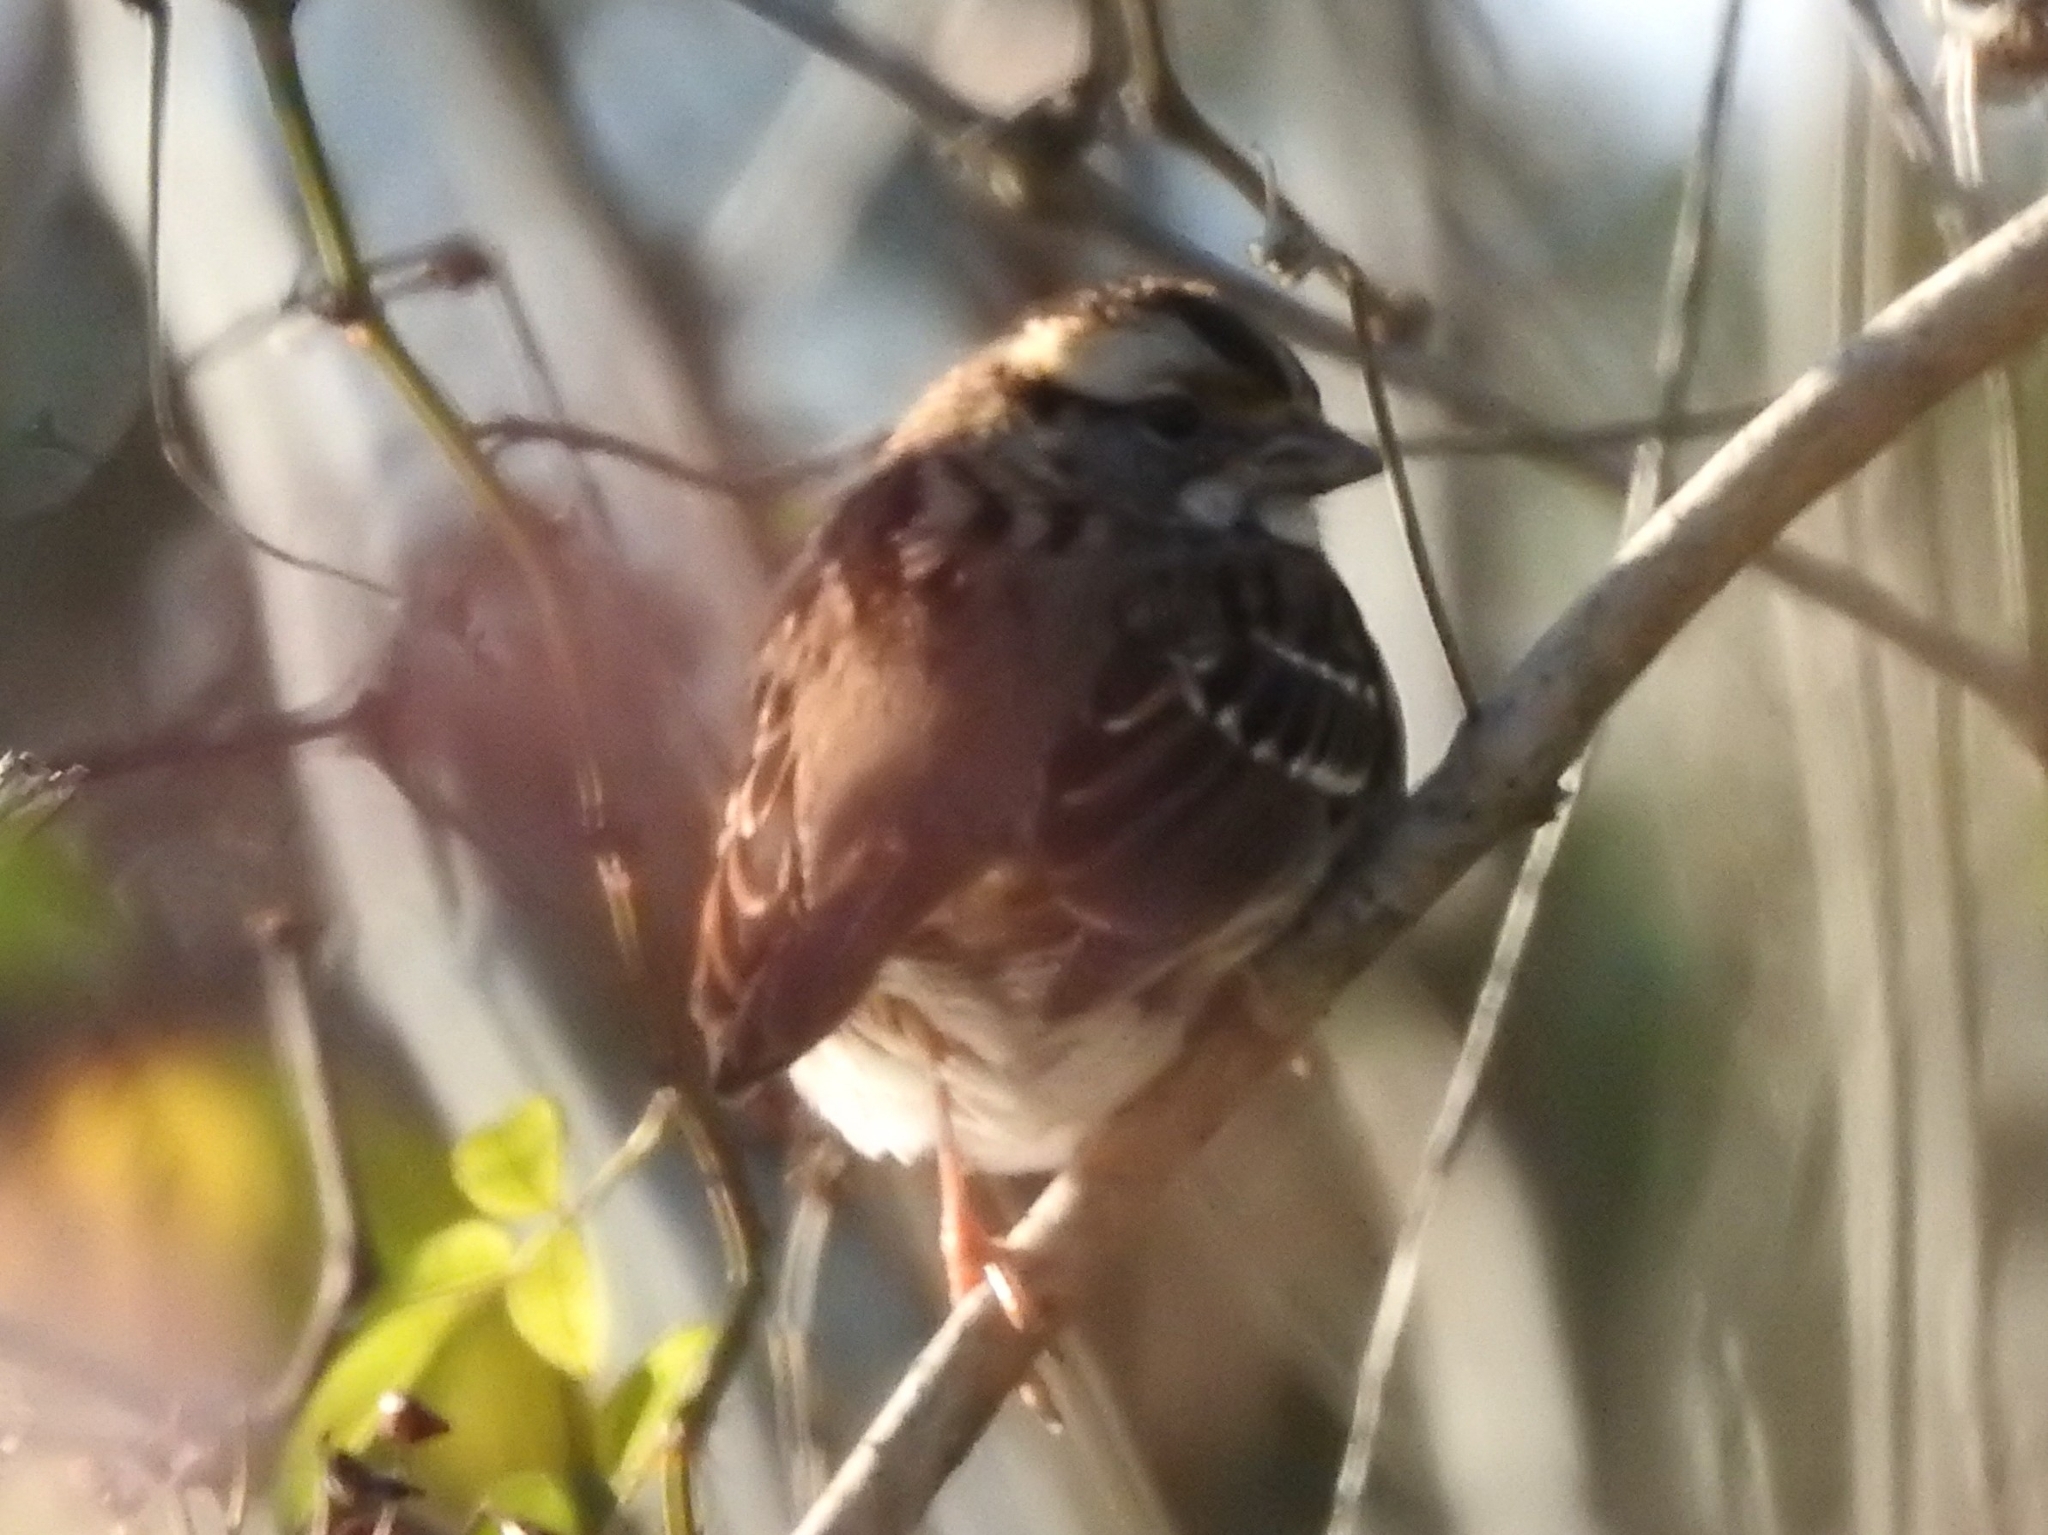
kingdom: Animalia
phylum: Chordata
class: Aves
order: Passeriformes
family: Passerellidae
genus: Zonotrichia
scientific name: Zonotrichia albicollis
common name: White-throated sparrow
